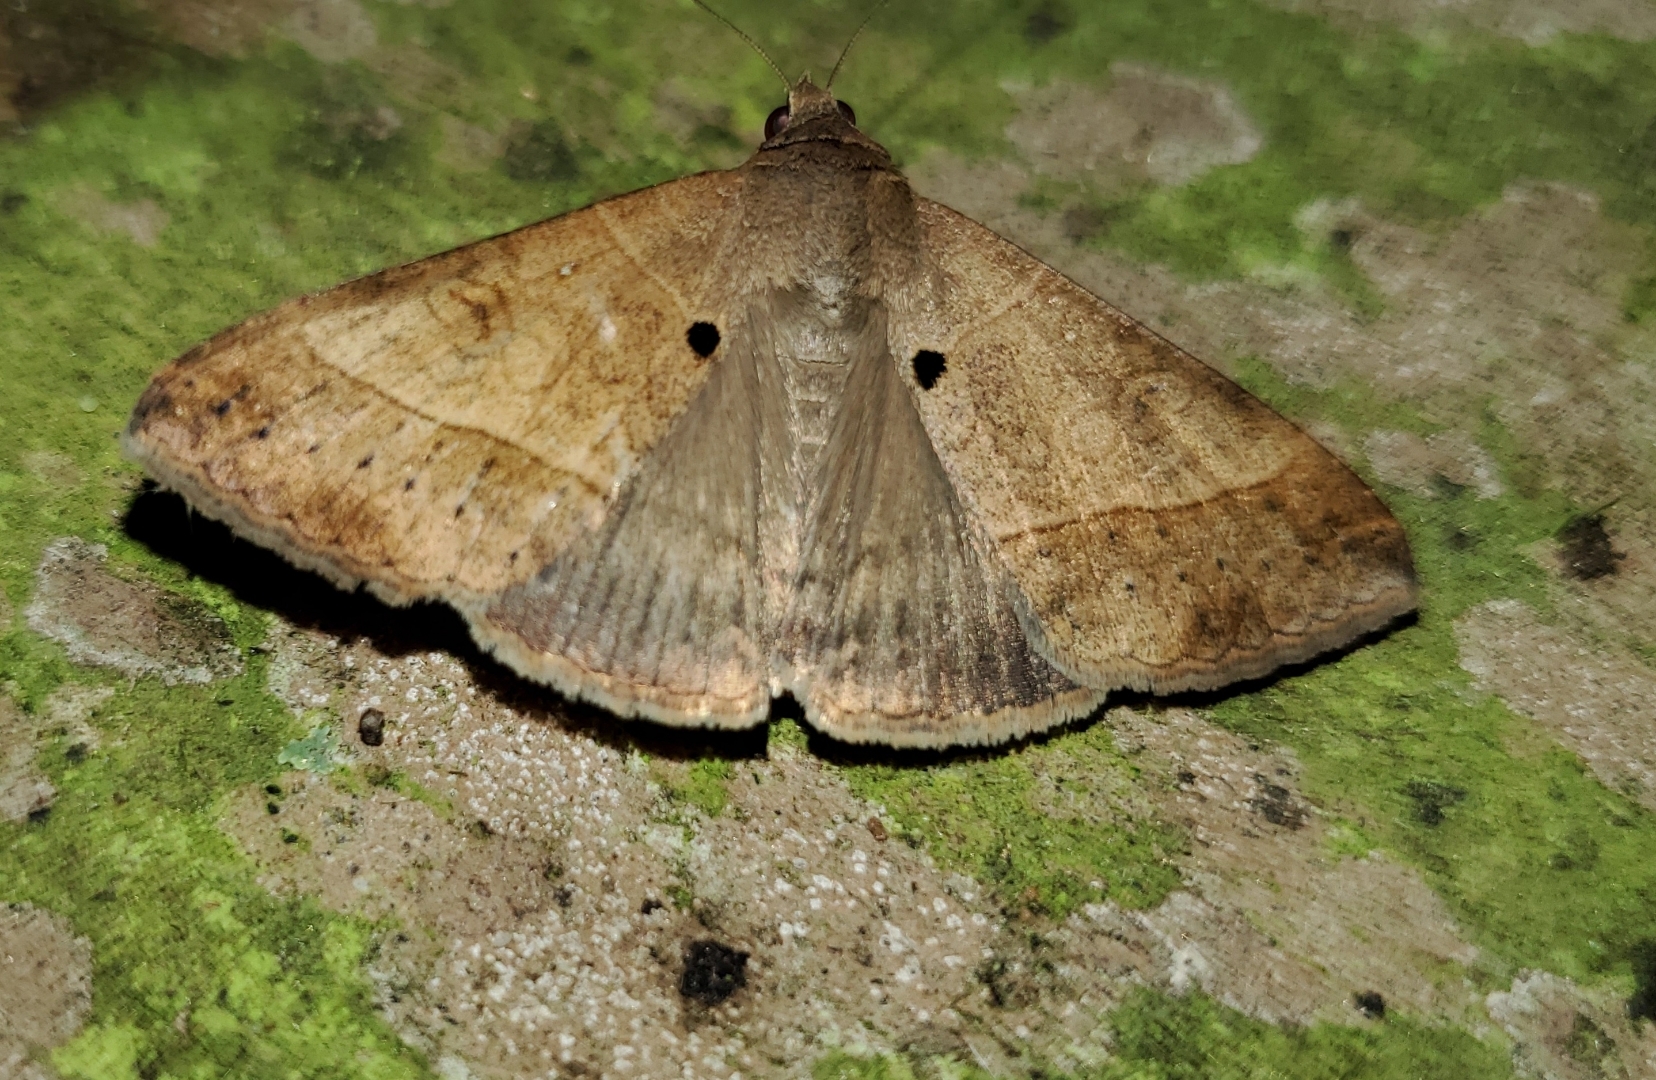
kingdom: Animalia
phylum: Arthropoda
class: Insecta
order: Lepidoptera
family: Erebidae
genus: Mocis
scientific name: Mocis latipes
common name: Striped grass looper
